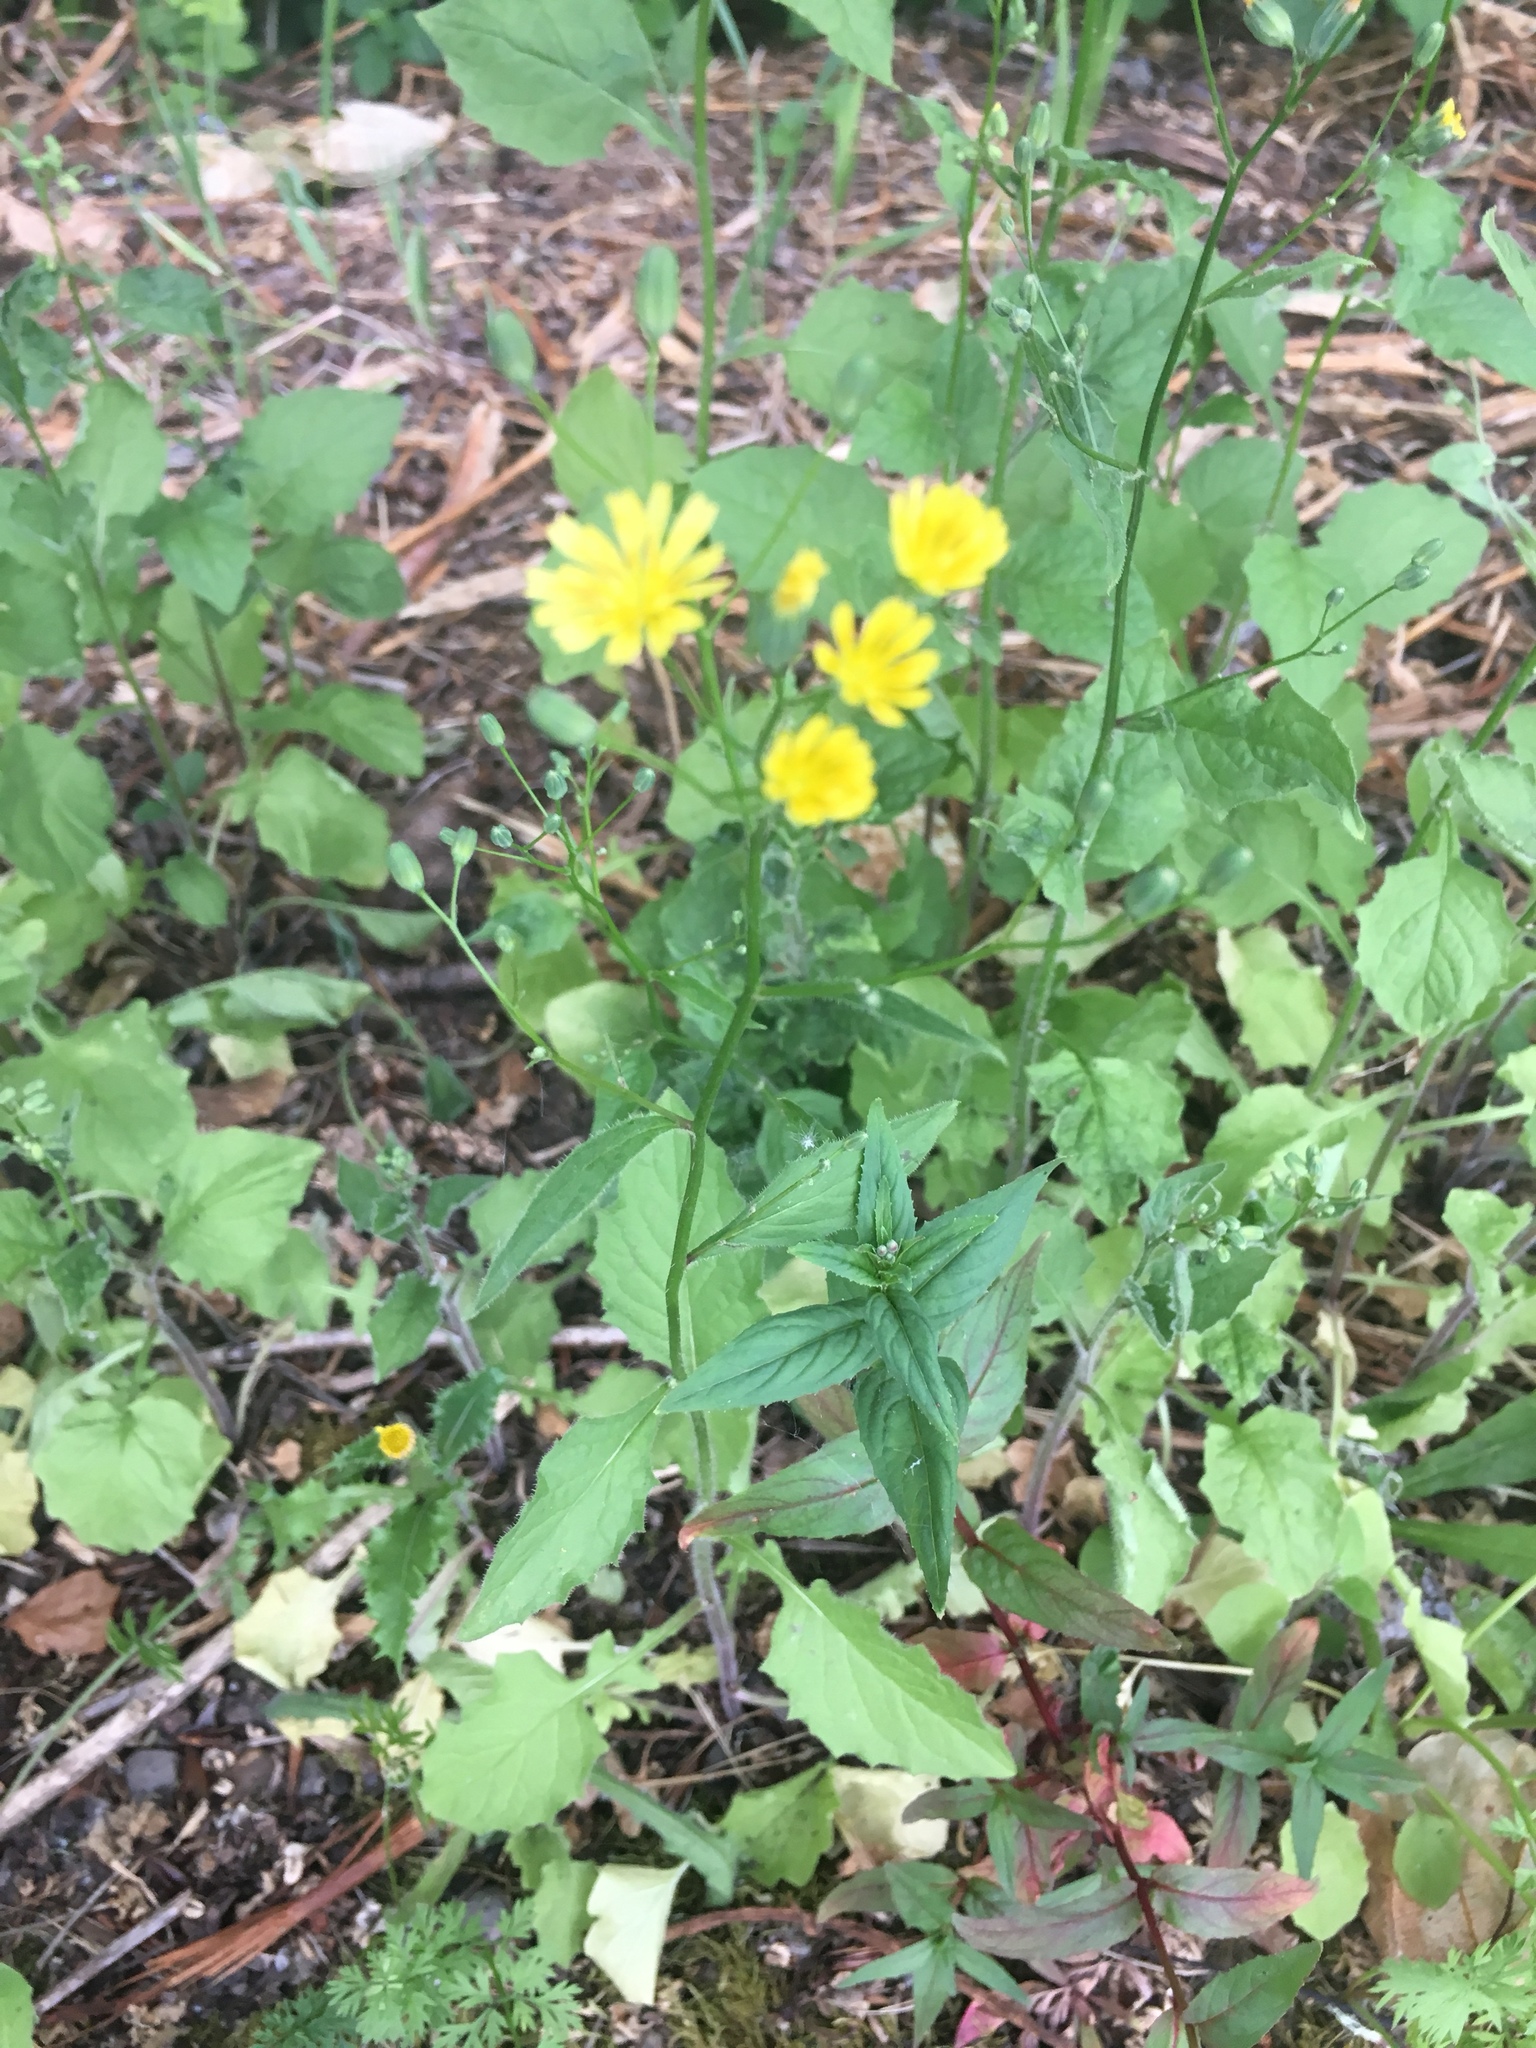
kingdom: Plantae
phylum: Tracheophyta
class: Magnoliopsida
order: Asterales
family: Asteraceae
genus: Lapsana
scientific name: Lapsana communis
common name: Nipplewort
